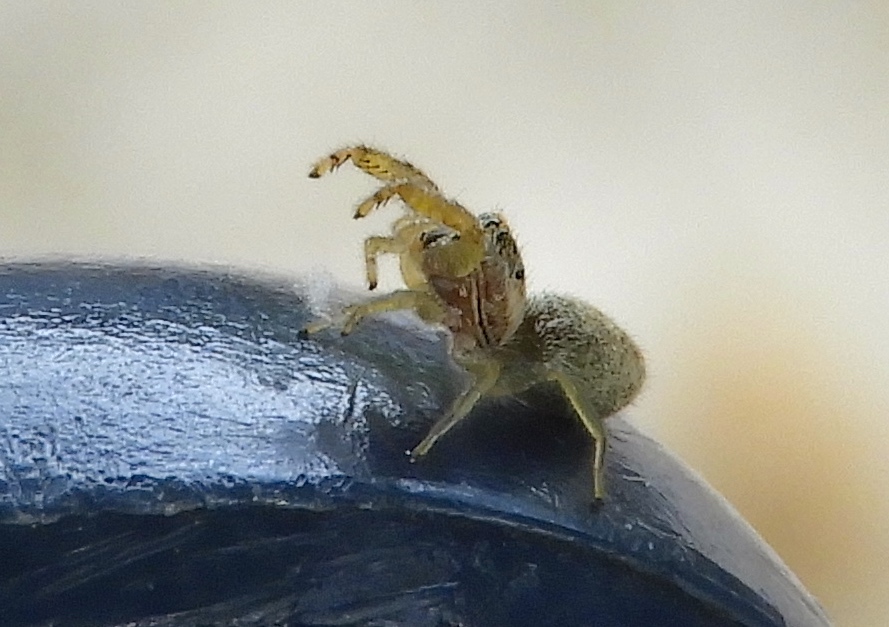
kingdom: Animalia
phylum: Arthropoda
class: Arachnida
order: Araneae
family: Salticidae
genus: Hentzia
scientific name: Hentzia
